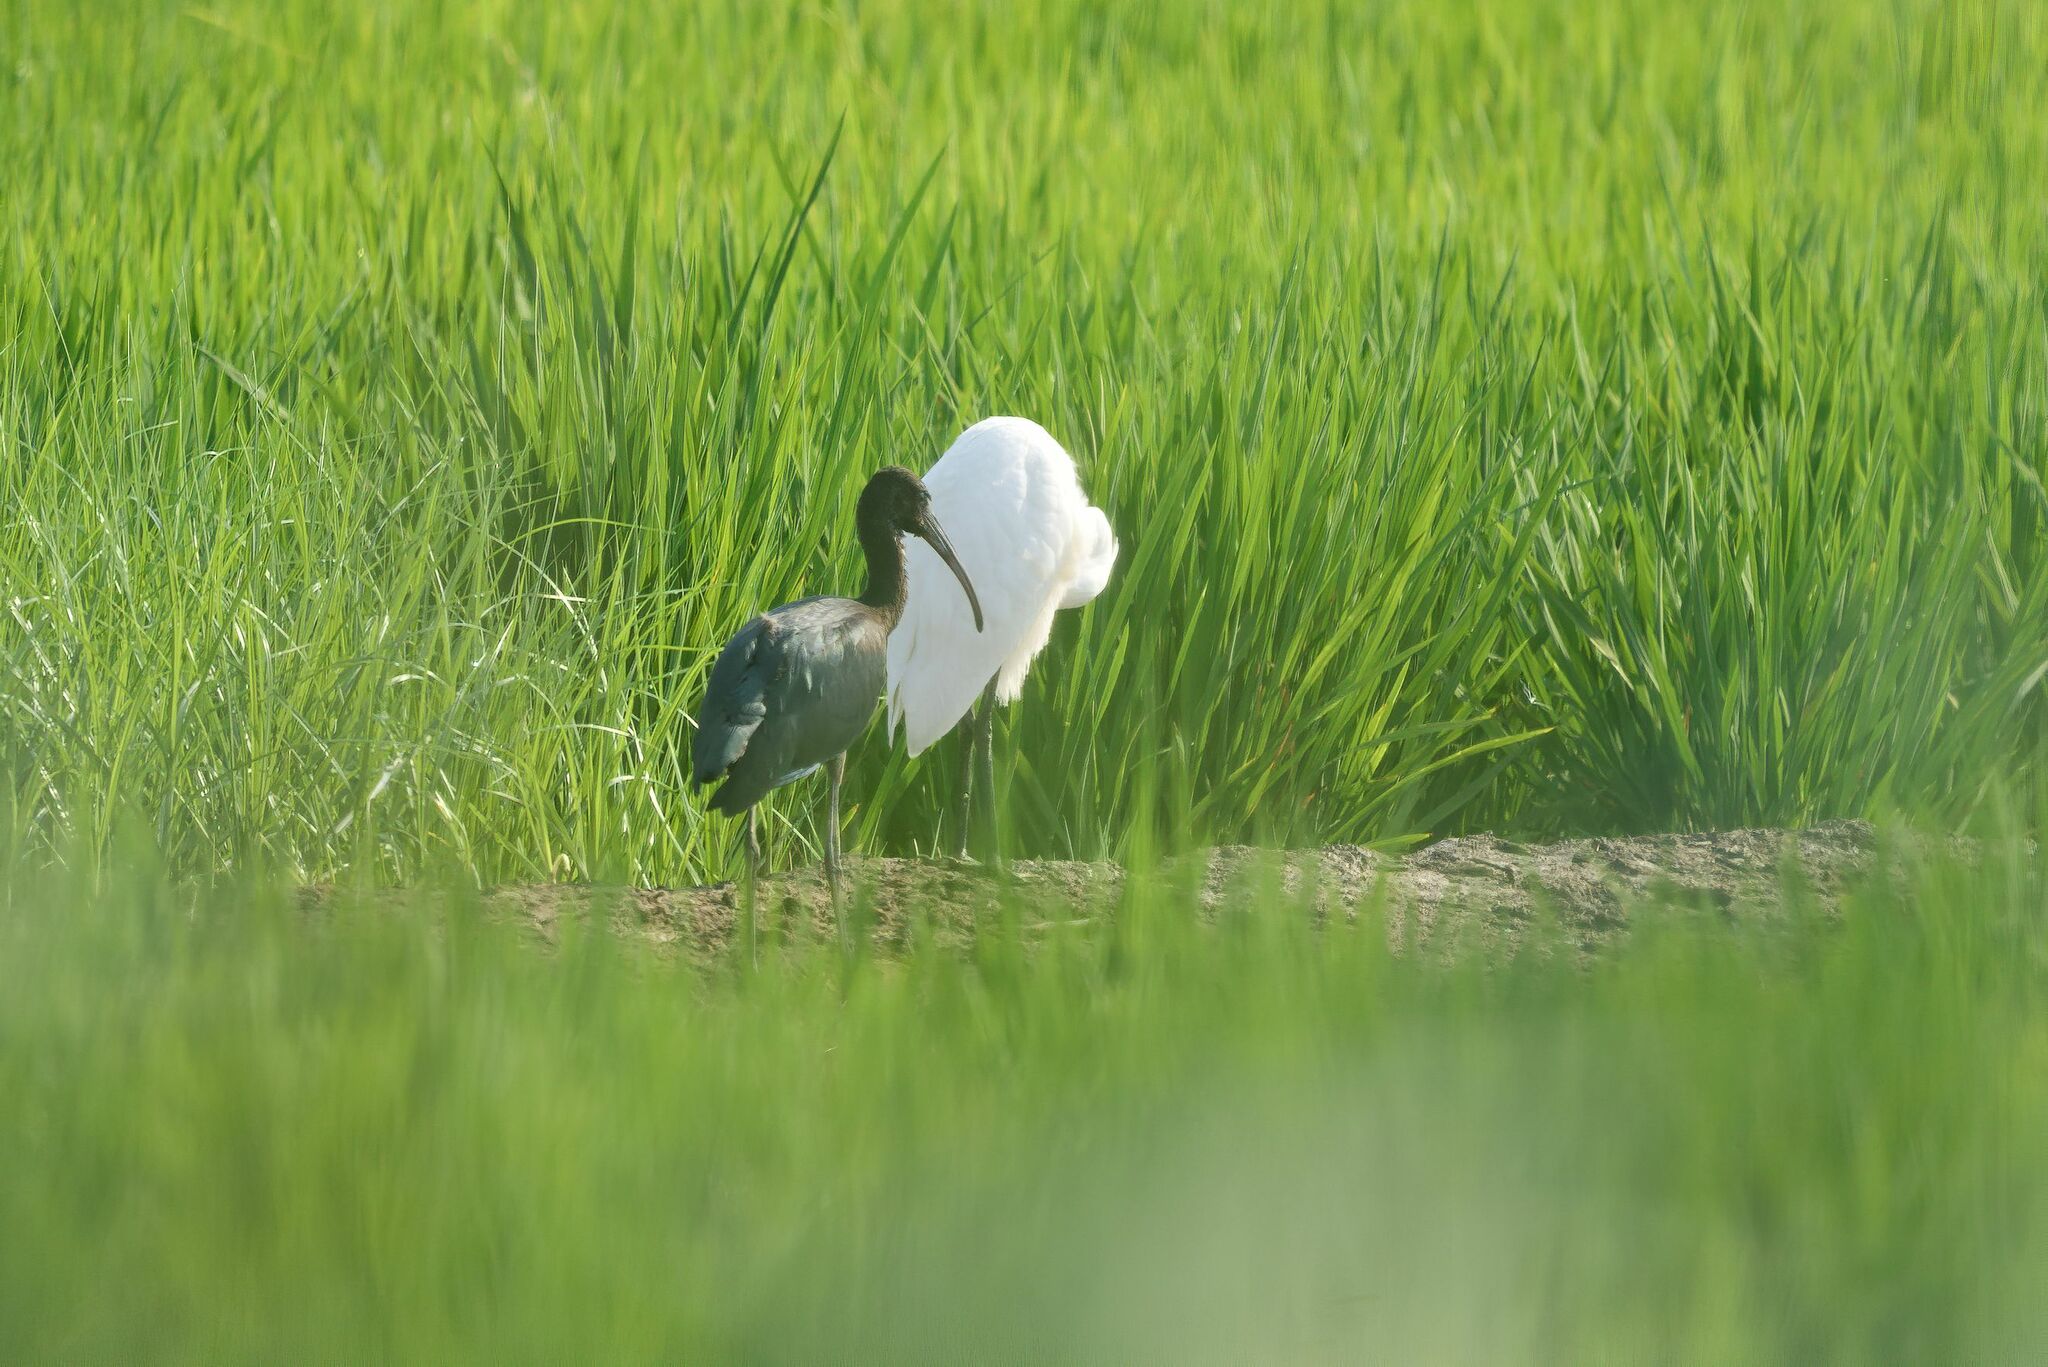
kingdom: Animalia
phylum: Chordata
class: Aves
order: Pelecaniformes
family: Threskiornithidae
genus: Plegadis
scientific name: Plegadis falcinellus
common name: Glossy ibis
